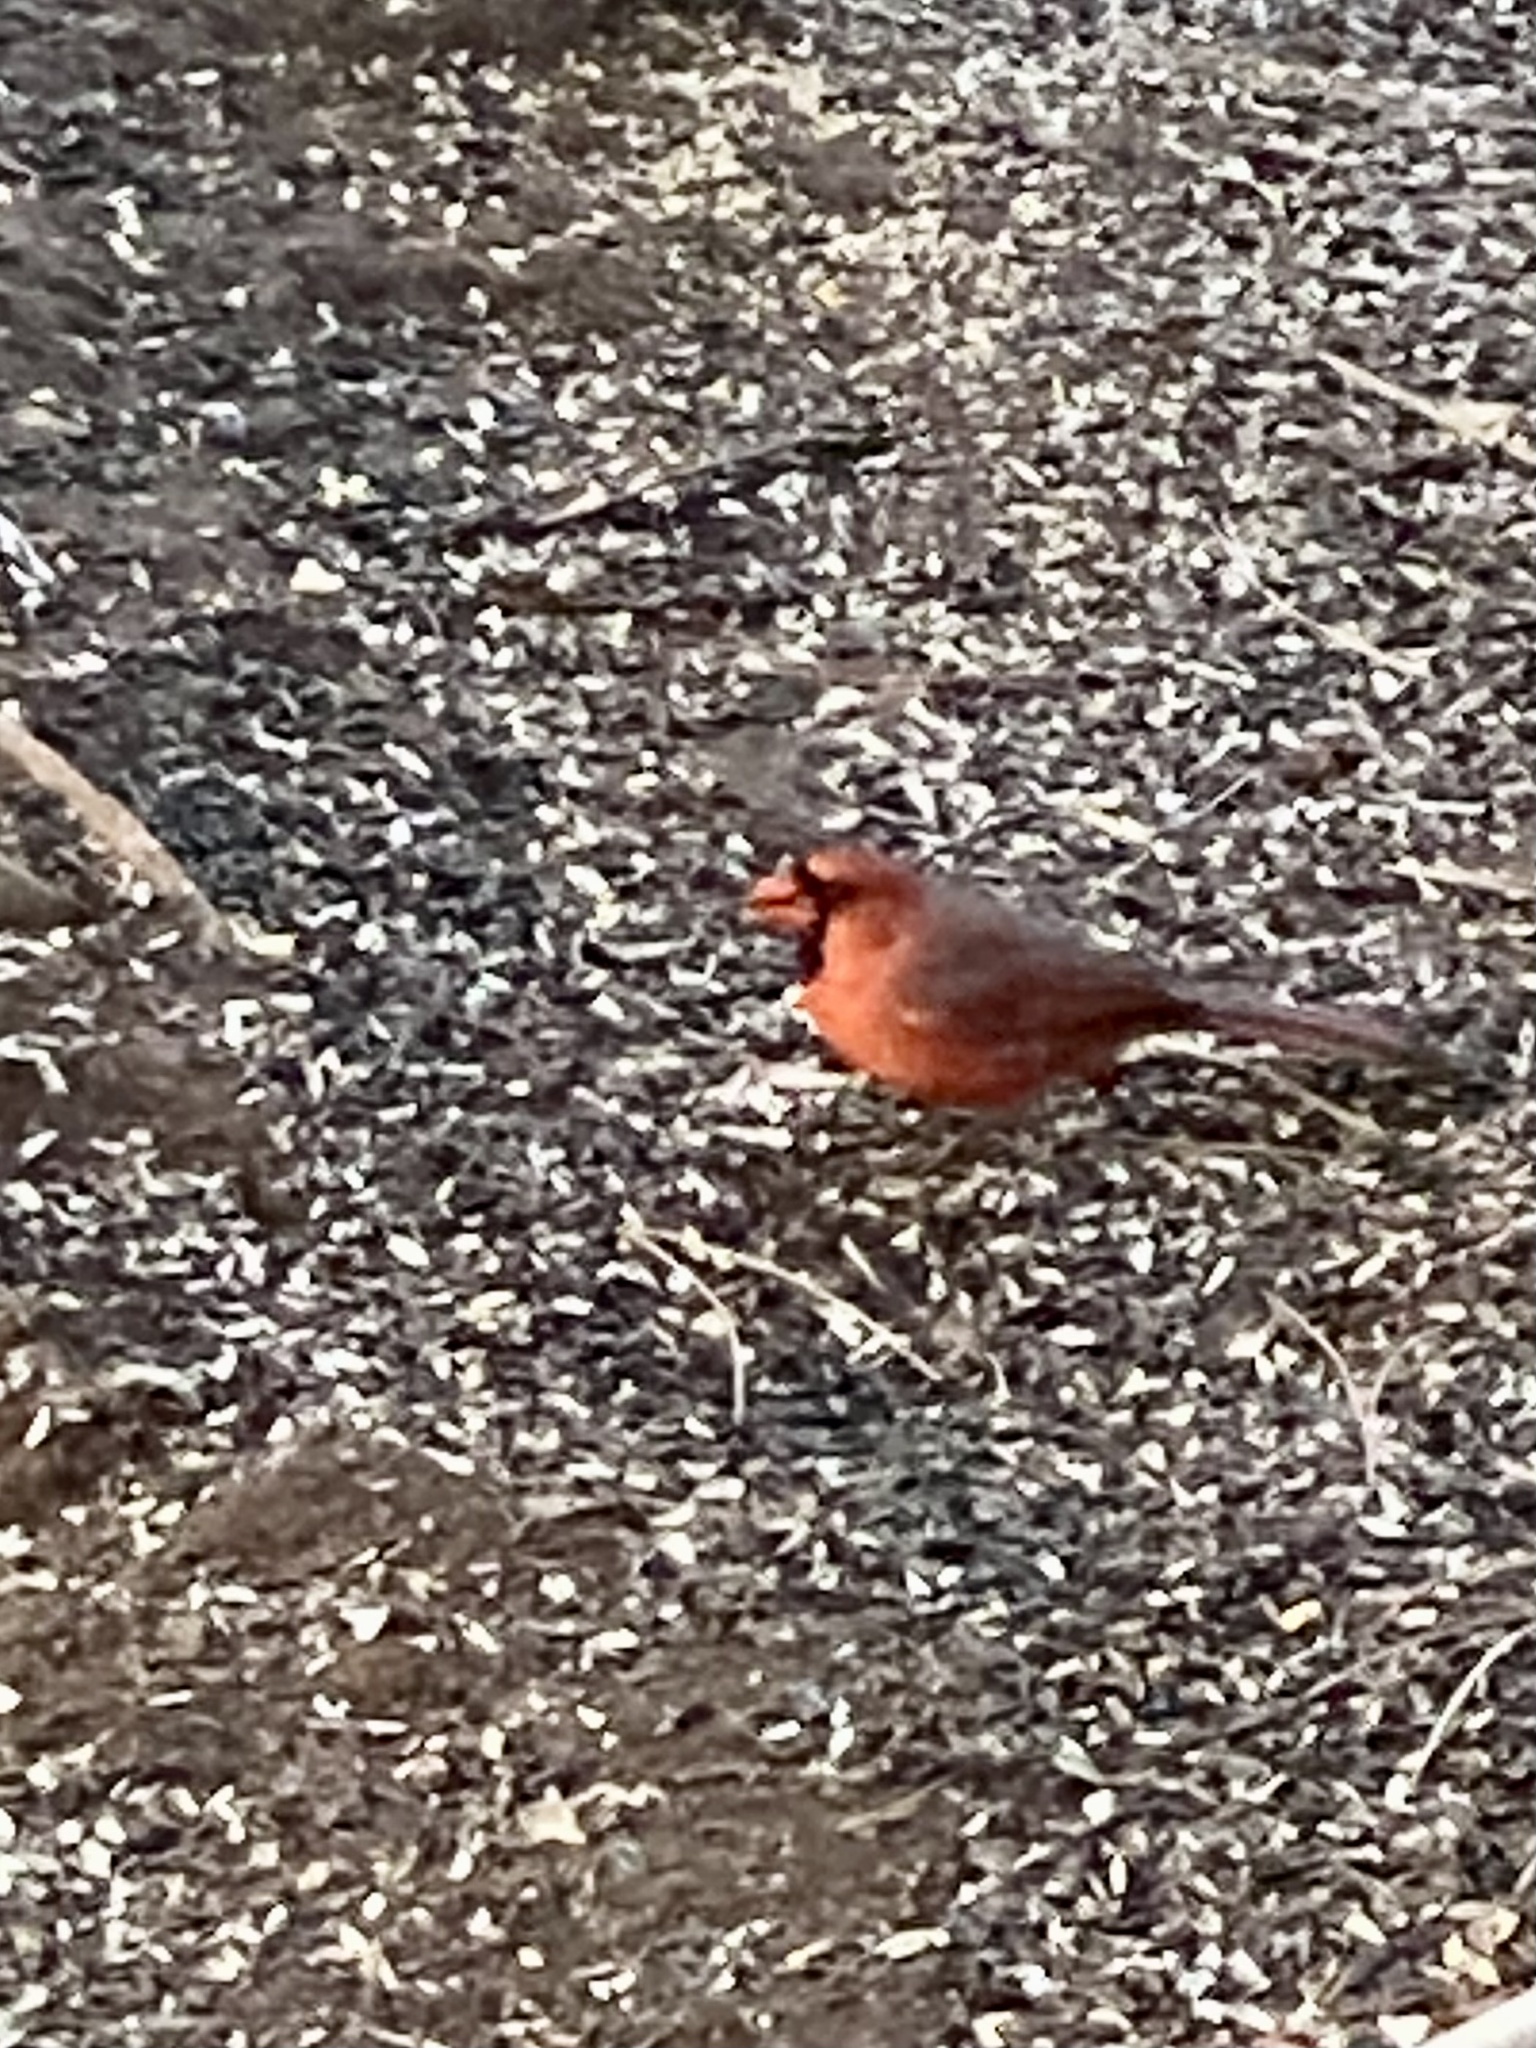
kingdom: Animalia
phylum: Chordata
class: Aves
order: Passeriformes
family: Cardinalidae
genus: Cardinalis
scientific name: Cardinalis cardinalis
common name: Northern cardinal
